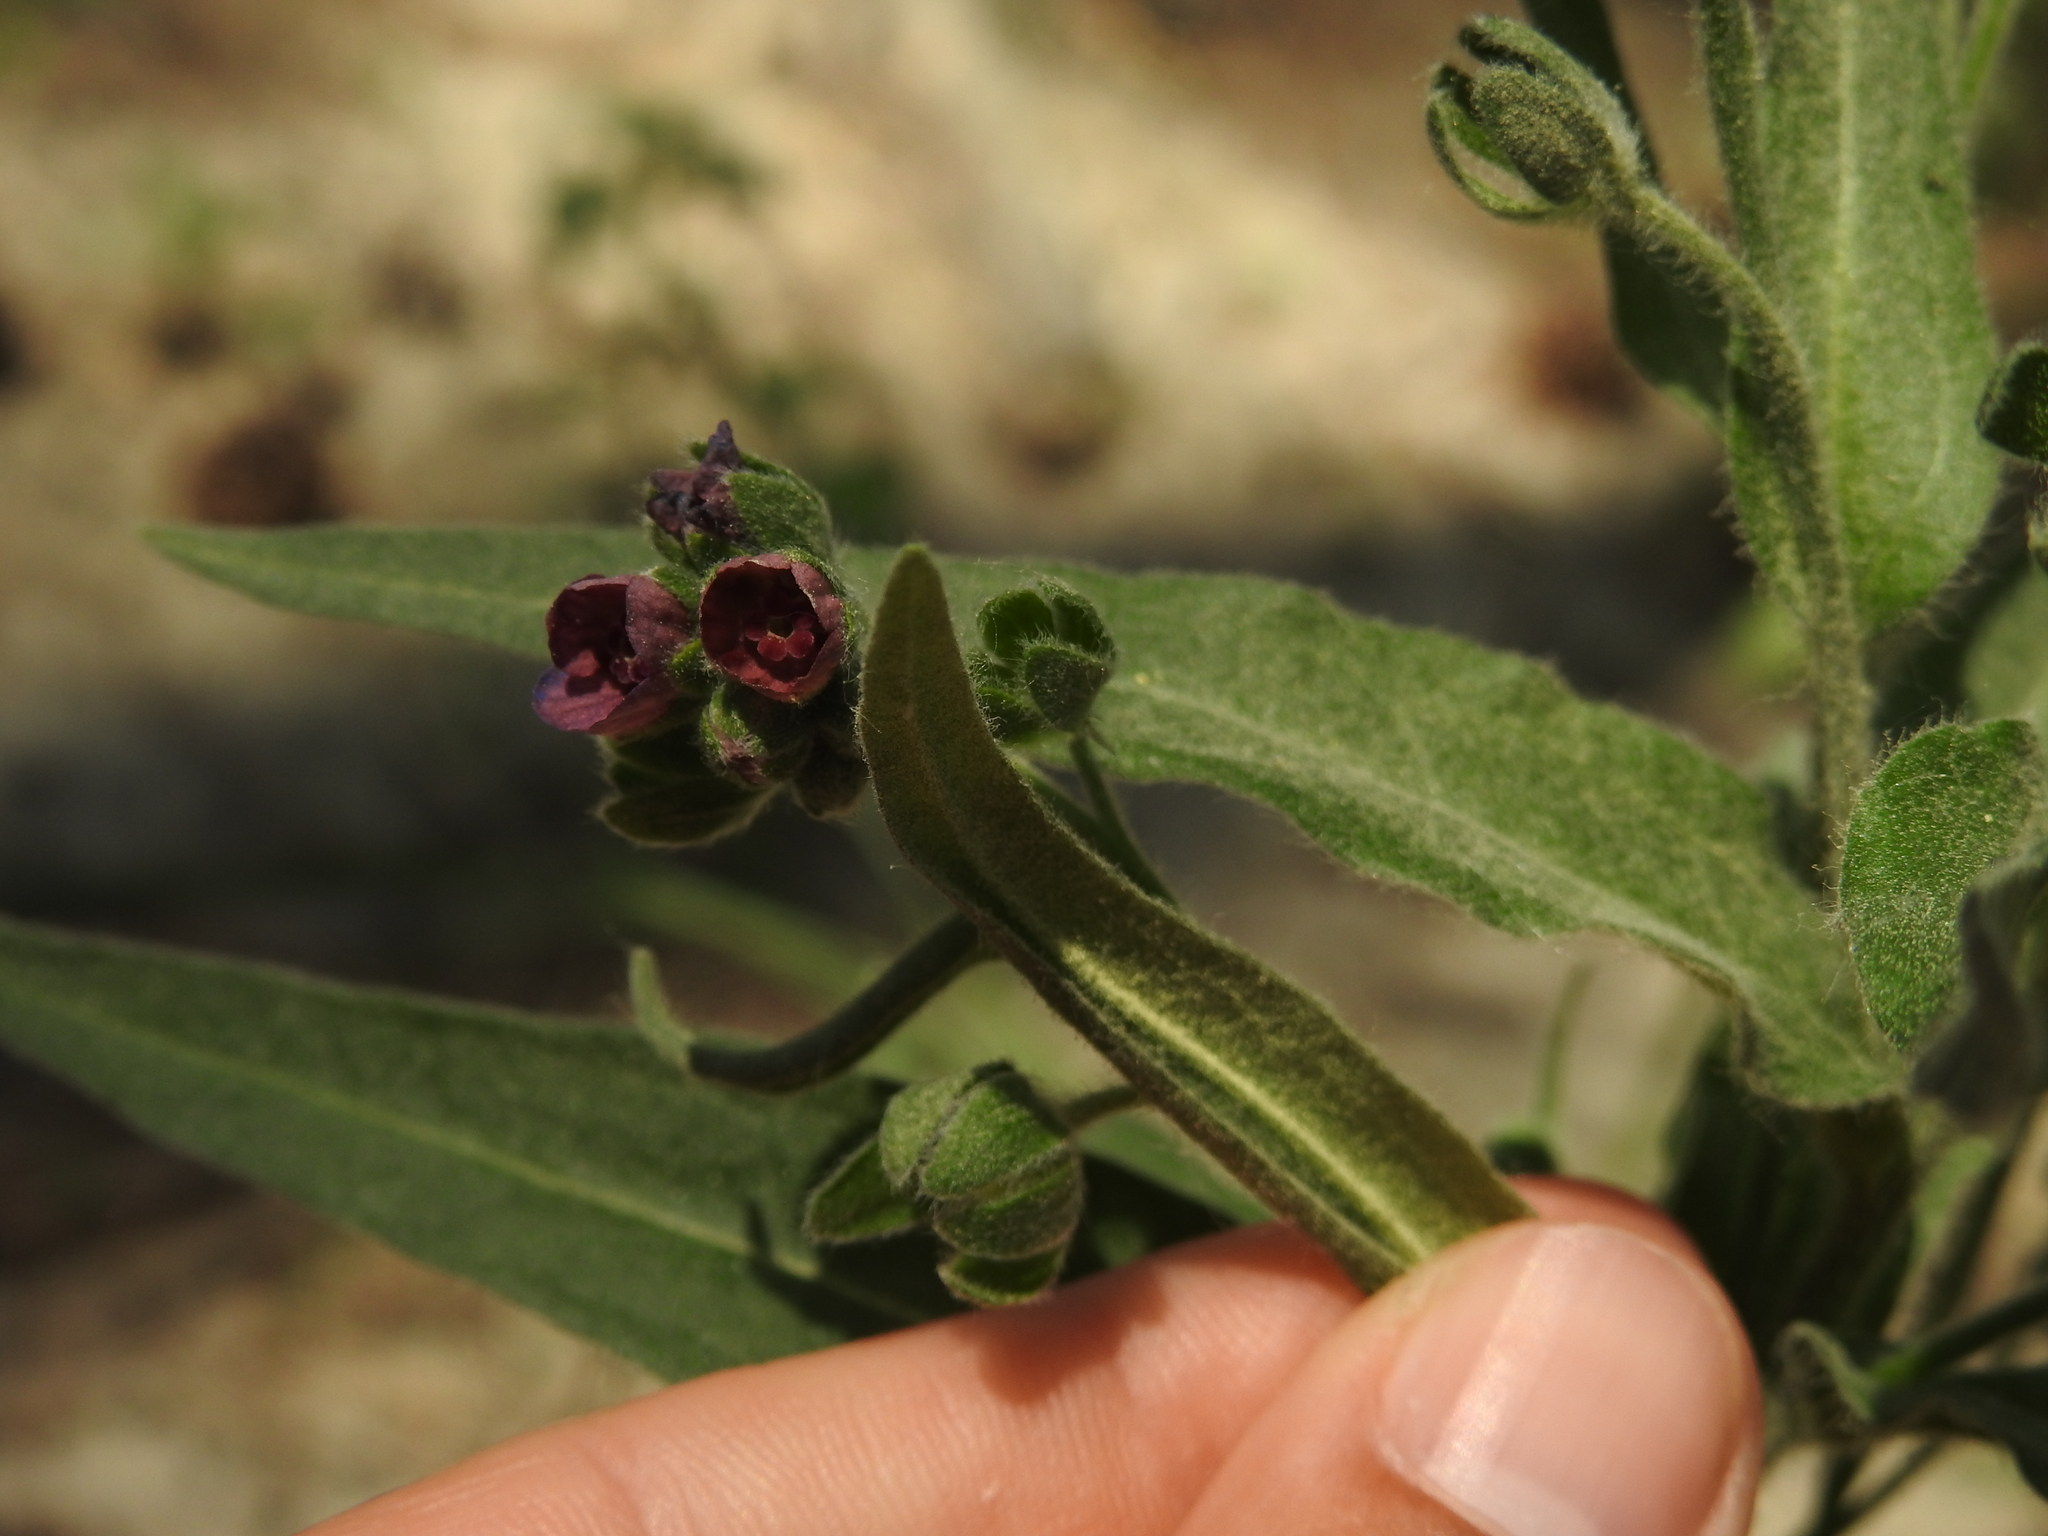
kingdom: Plantae
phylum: Tracheophyta
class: Magnoliopsida
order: Boraginales
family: Boraginaceae
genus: Cynoglossum
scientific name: Cynoglossum officinale
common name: Hound's-tongue
